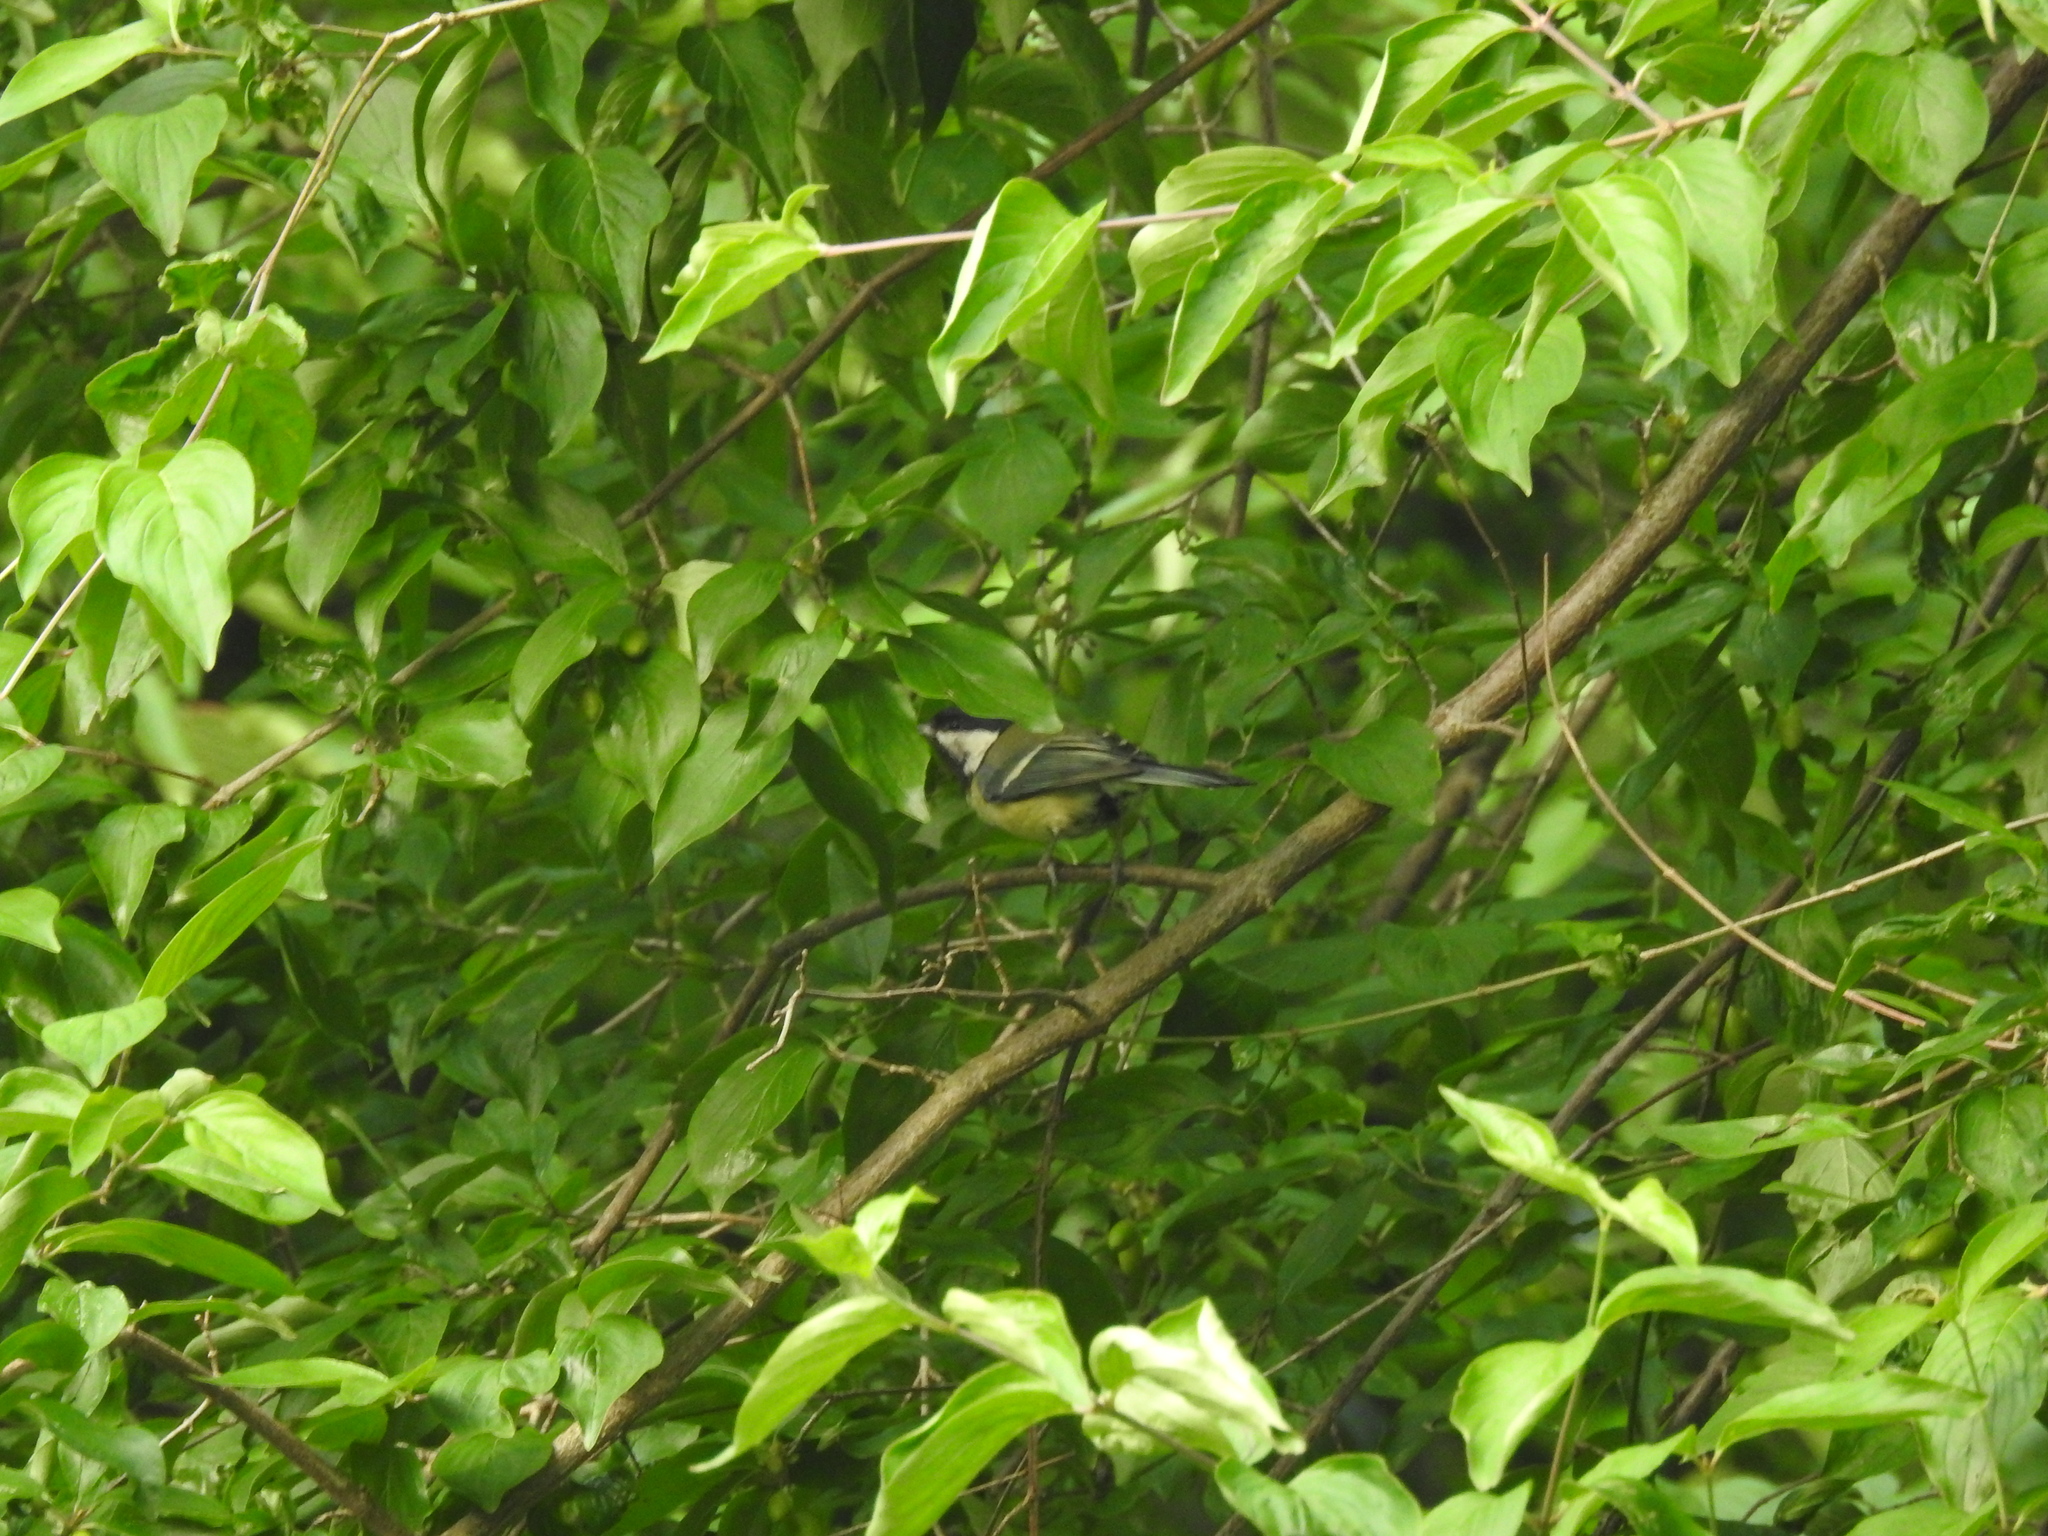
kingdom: Animalia
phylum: Chordata
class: Aves
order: Passeriformes
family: Paridae
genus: Parus
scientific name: Parus major
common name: Great tit
